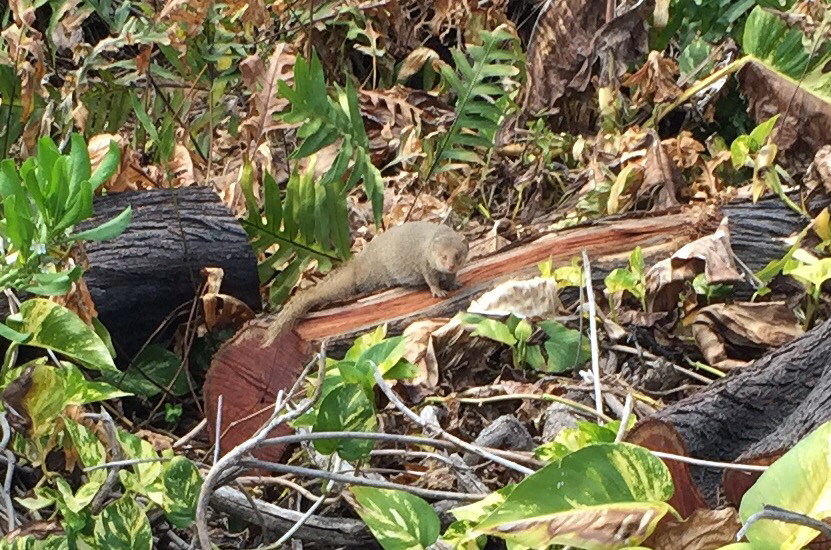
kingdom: Animalia
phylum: Chordata
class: Mammalia
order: Carnivora
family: Herpestidae
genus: Herpestes
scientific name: Herpestes javanicus
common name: Small asian mongoose
